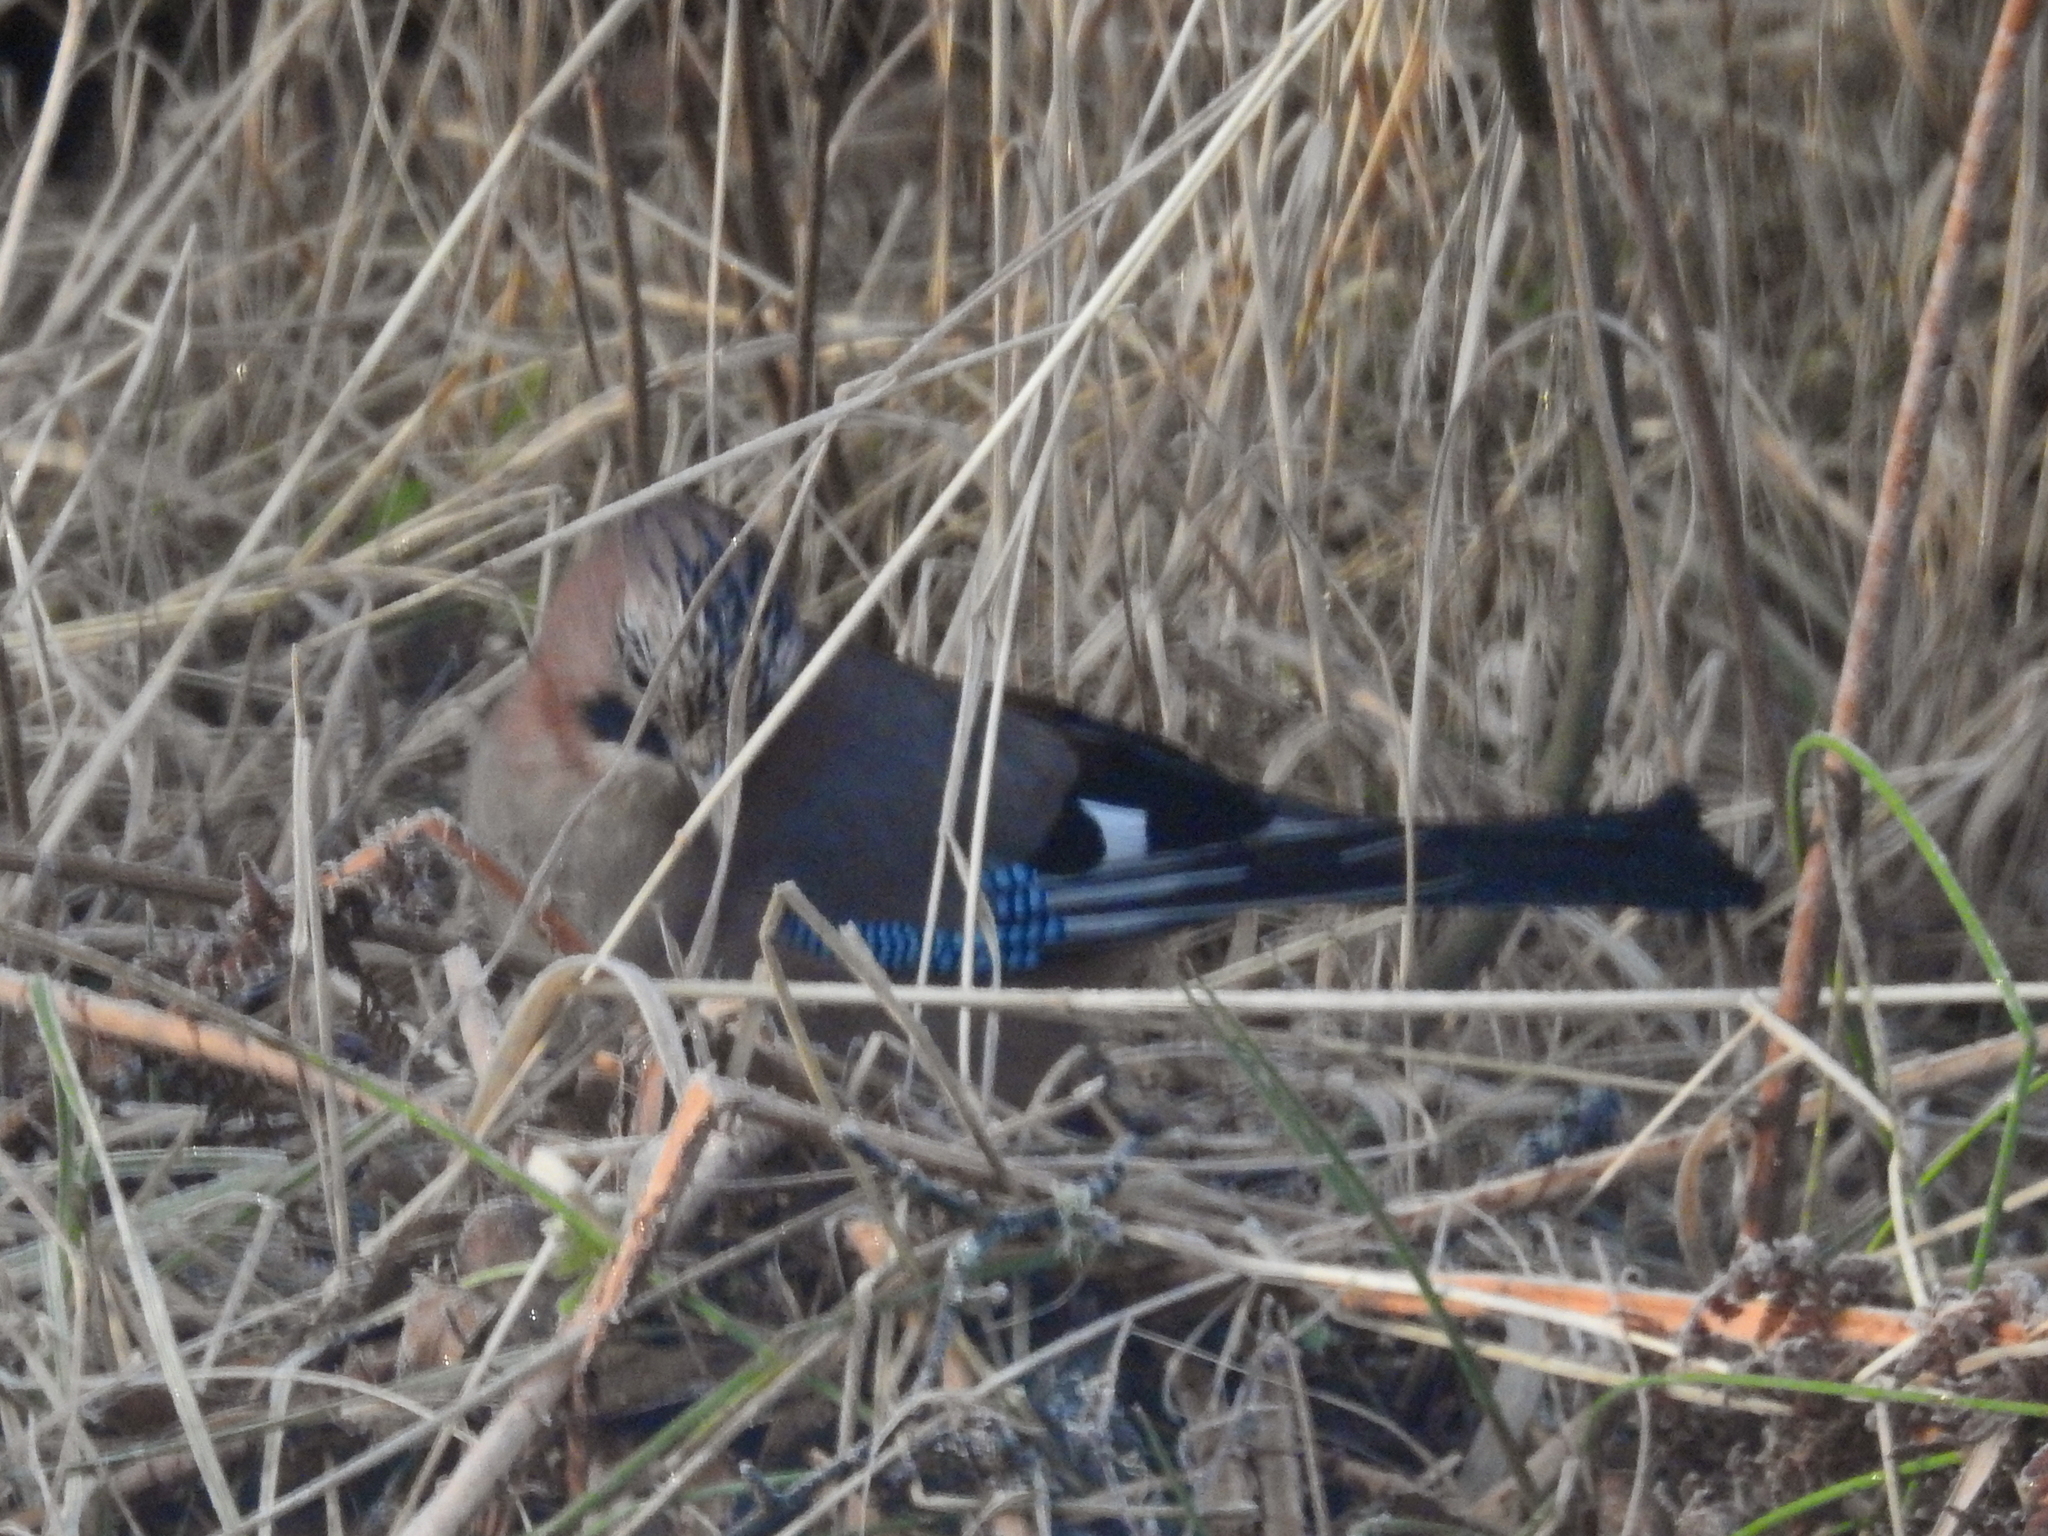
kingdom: Animalia
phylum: Chordata
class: Aves
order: Passeriformes
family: Corvidae
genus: Garrulus
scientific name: Garrulus glandarius
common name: Eurasian jay
